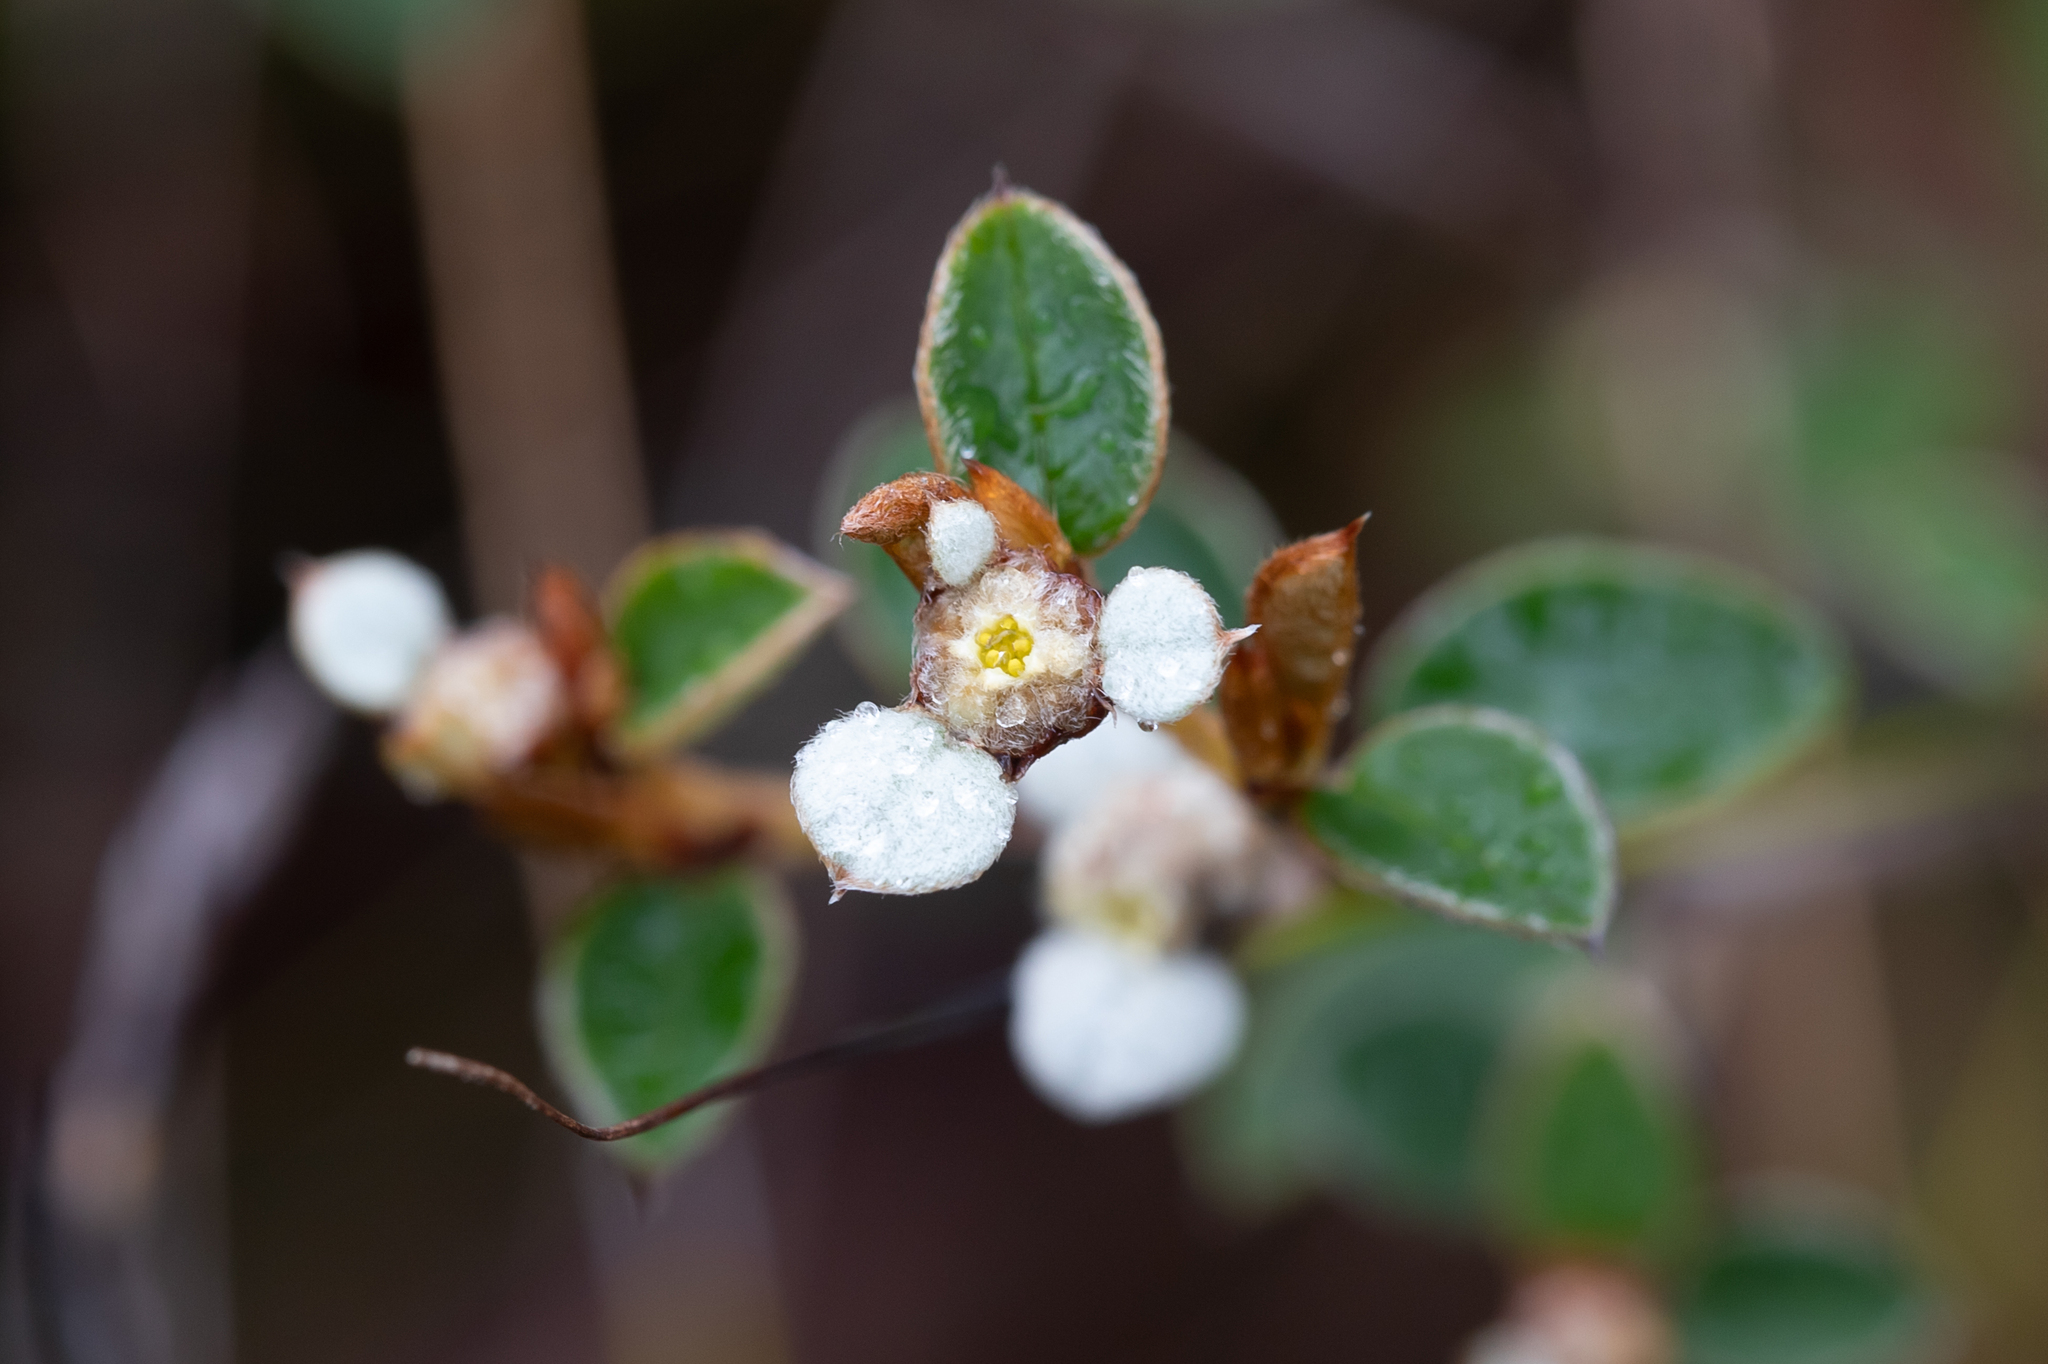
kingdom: Plantae
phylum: Tracheophyta
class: Magnoliopsida
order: Rosales
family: Rhamnaceae
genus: Spyridium
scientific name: Spyridium thymifolium
